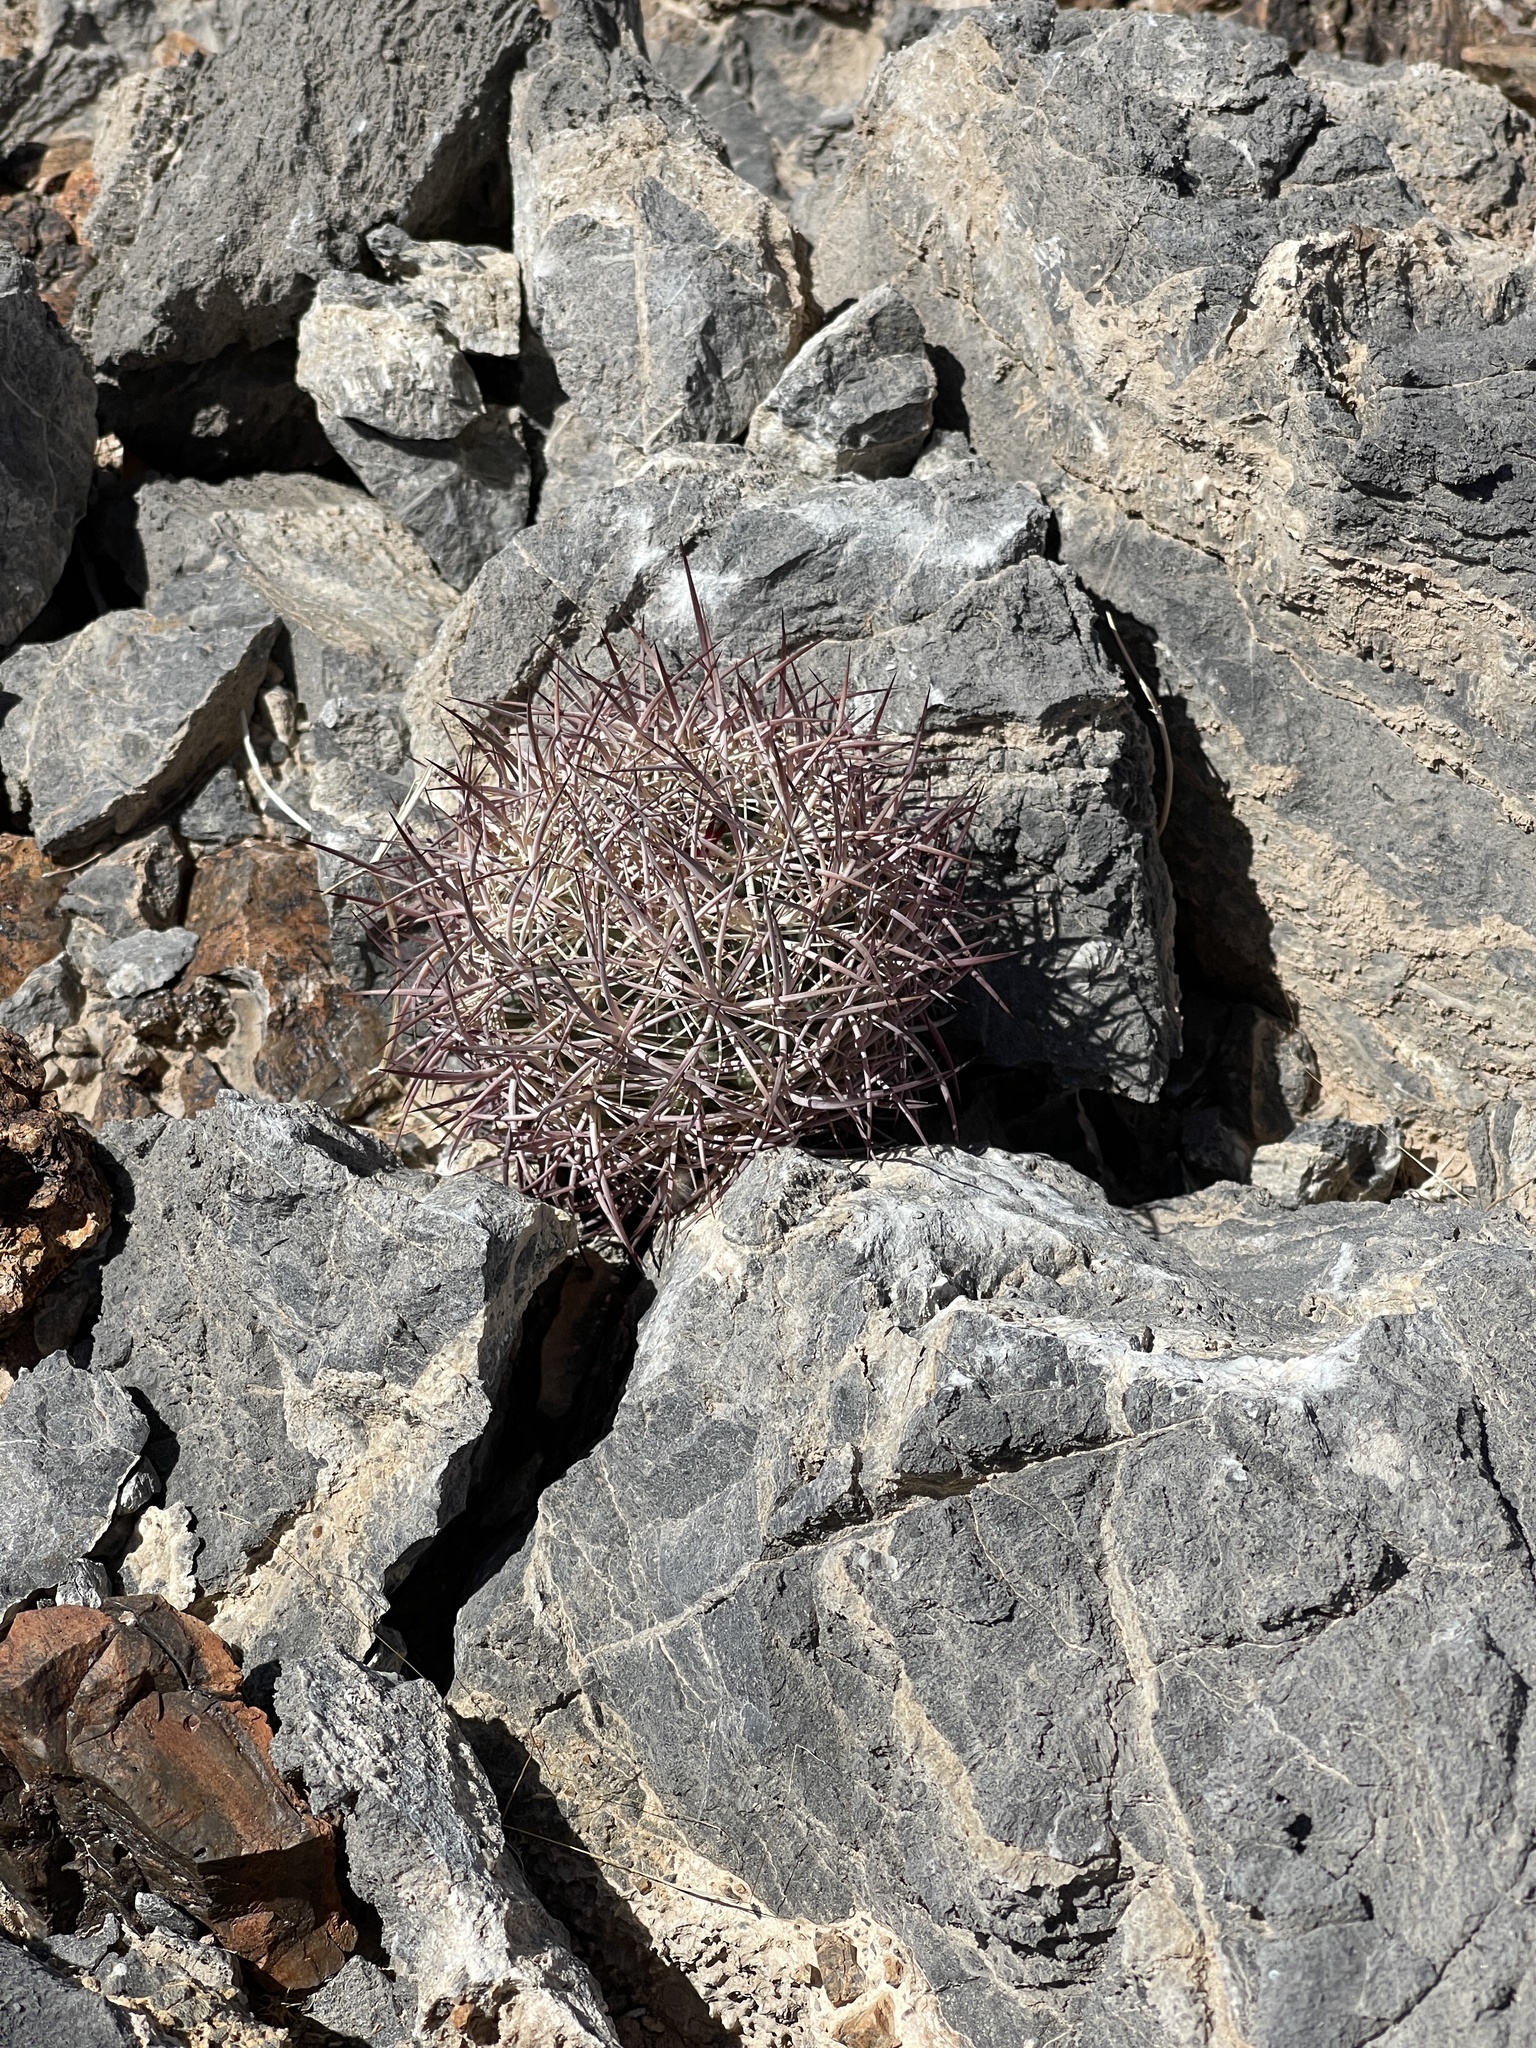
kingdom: Plantae
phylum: Tracheophyta
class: Magnoliopsida
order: Caryophyllales
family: Cactaceae
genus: Sclerocactus
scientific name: Sclerocactus johnsonii
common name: Eight-spine fishhook cactus
